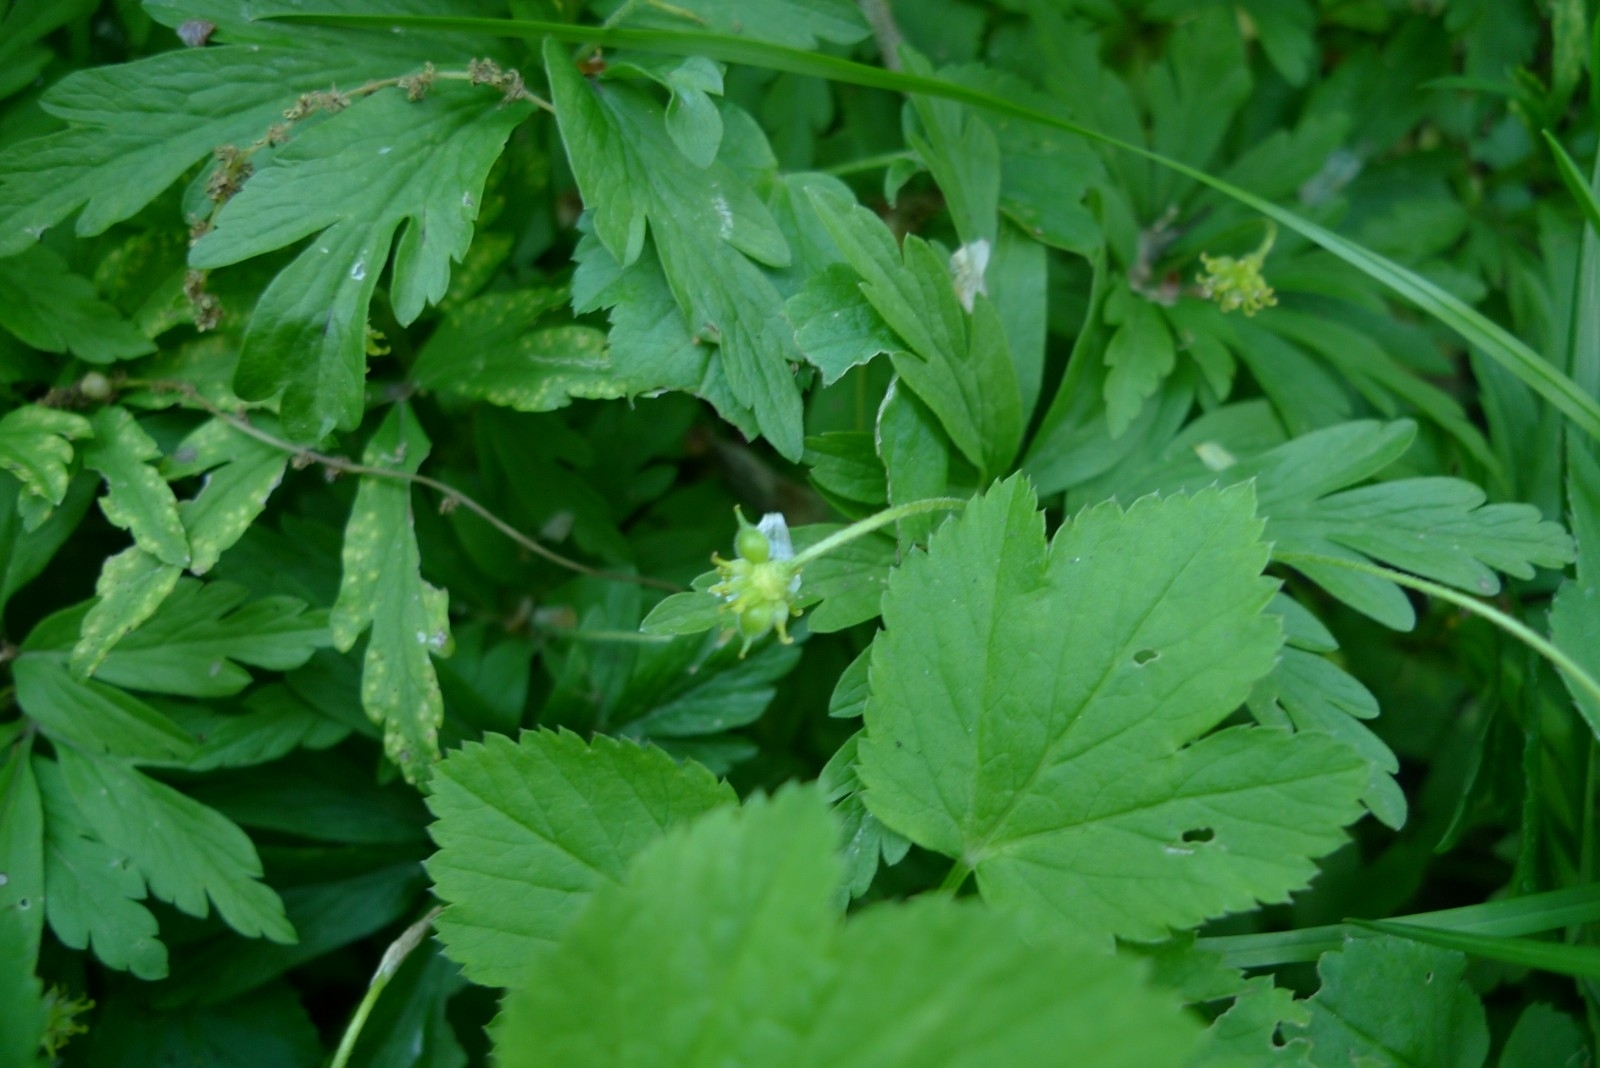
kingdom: Plantae
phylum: Tracheophyta
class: Magnoliopsida
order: Ranunculales
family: Ranunculaceae
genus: Anemone
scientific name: Anemone ranunculoides
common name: Yellow anemone
